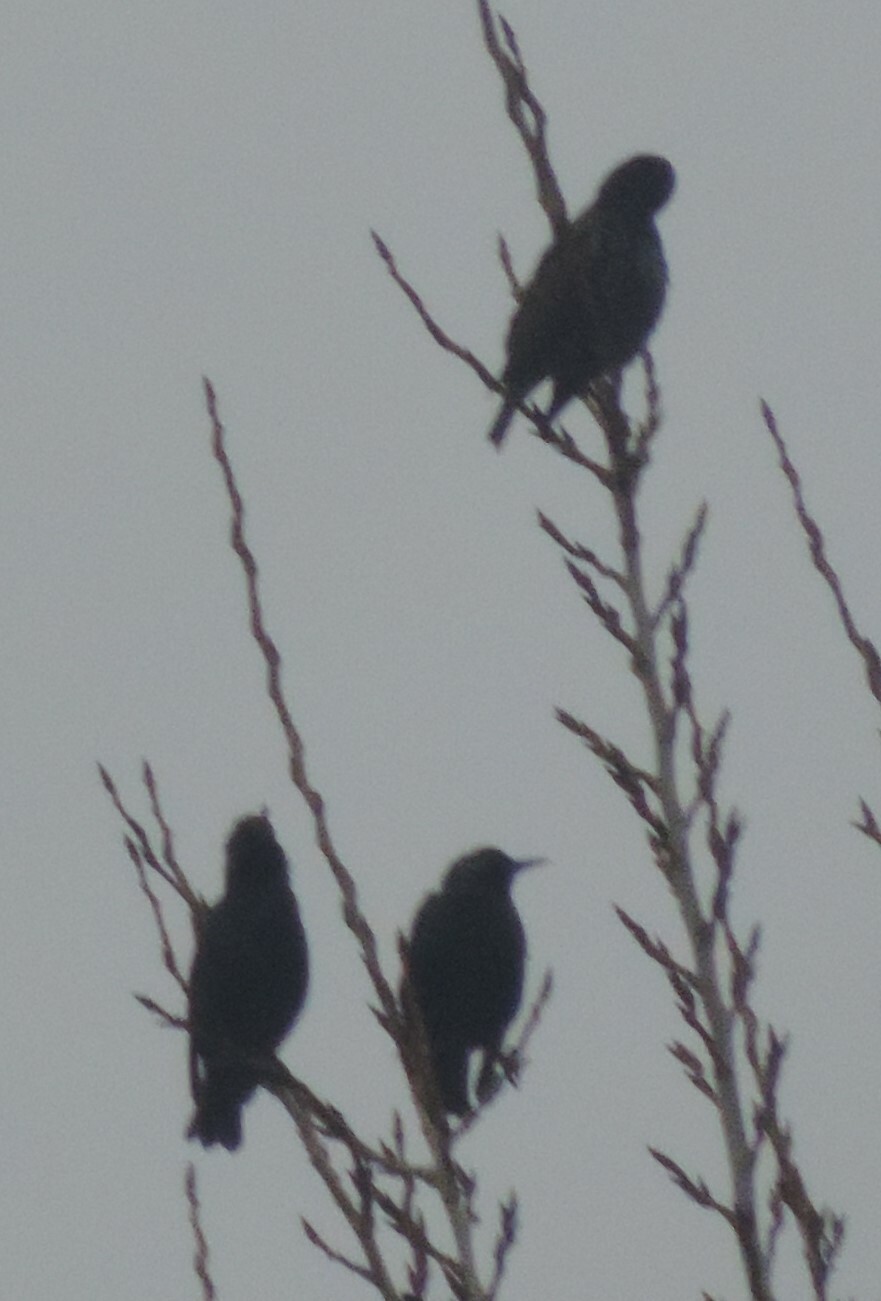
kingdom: Animalia
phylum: Chordata
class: Aves
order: Passeriformes
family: Sturnidae
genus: Sturnus
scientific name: Sturnus vulgaris
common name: Common starling
